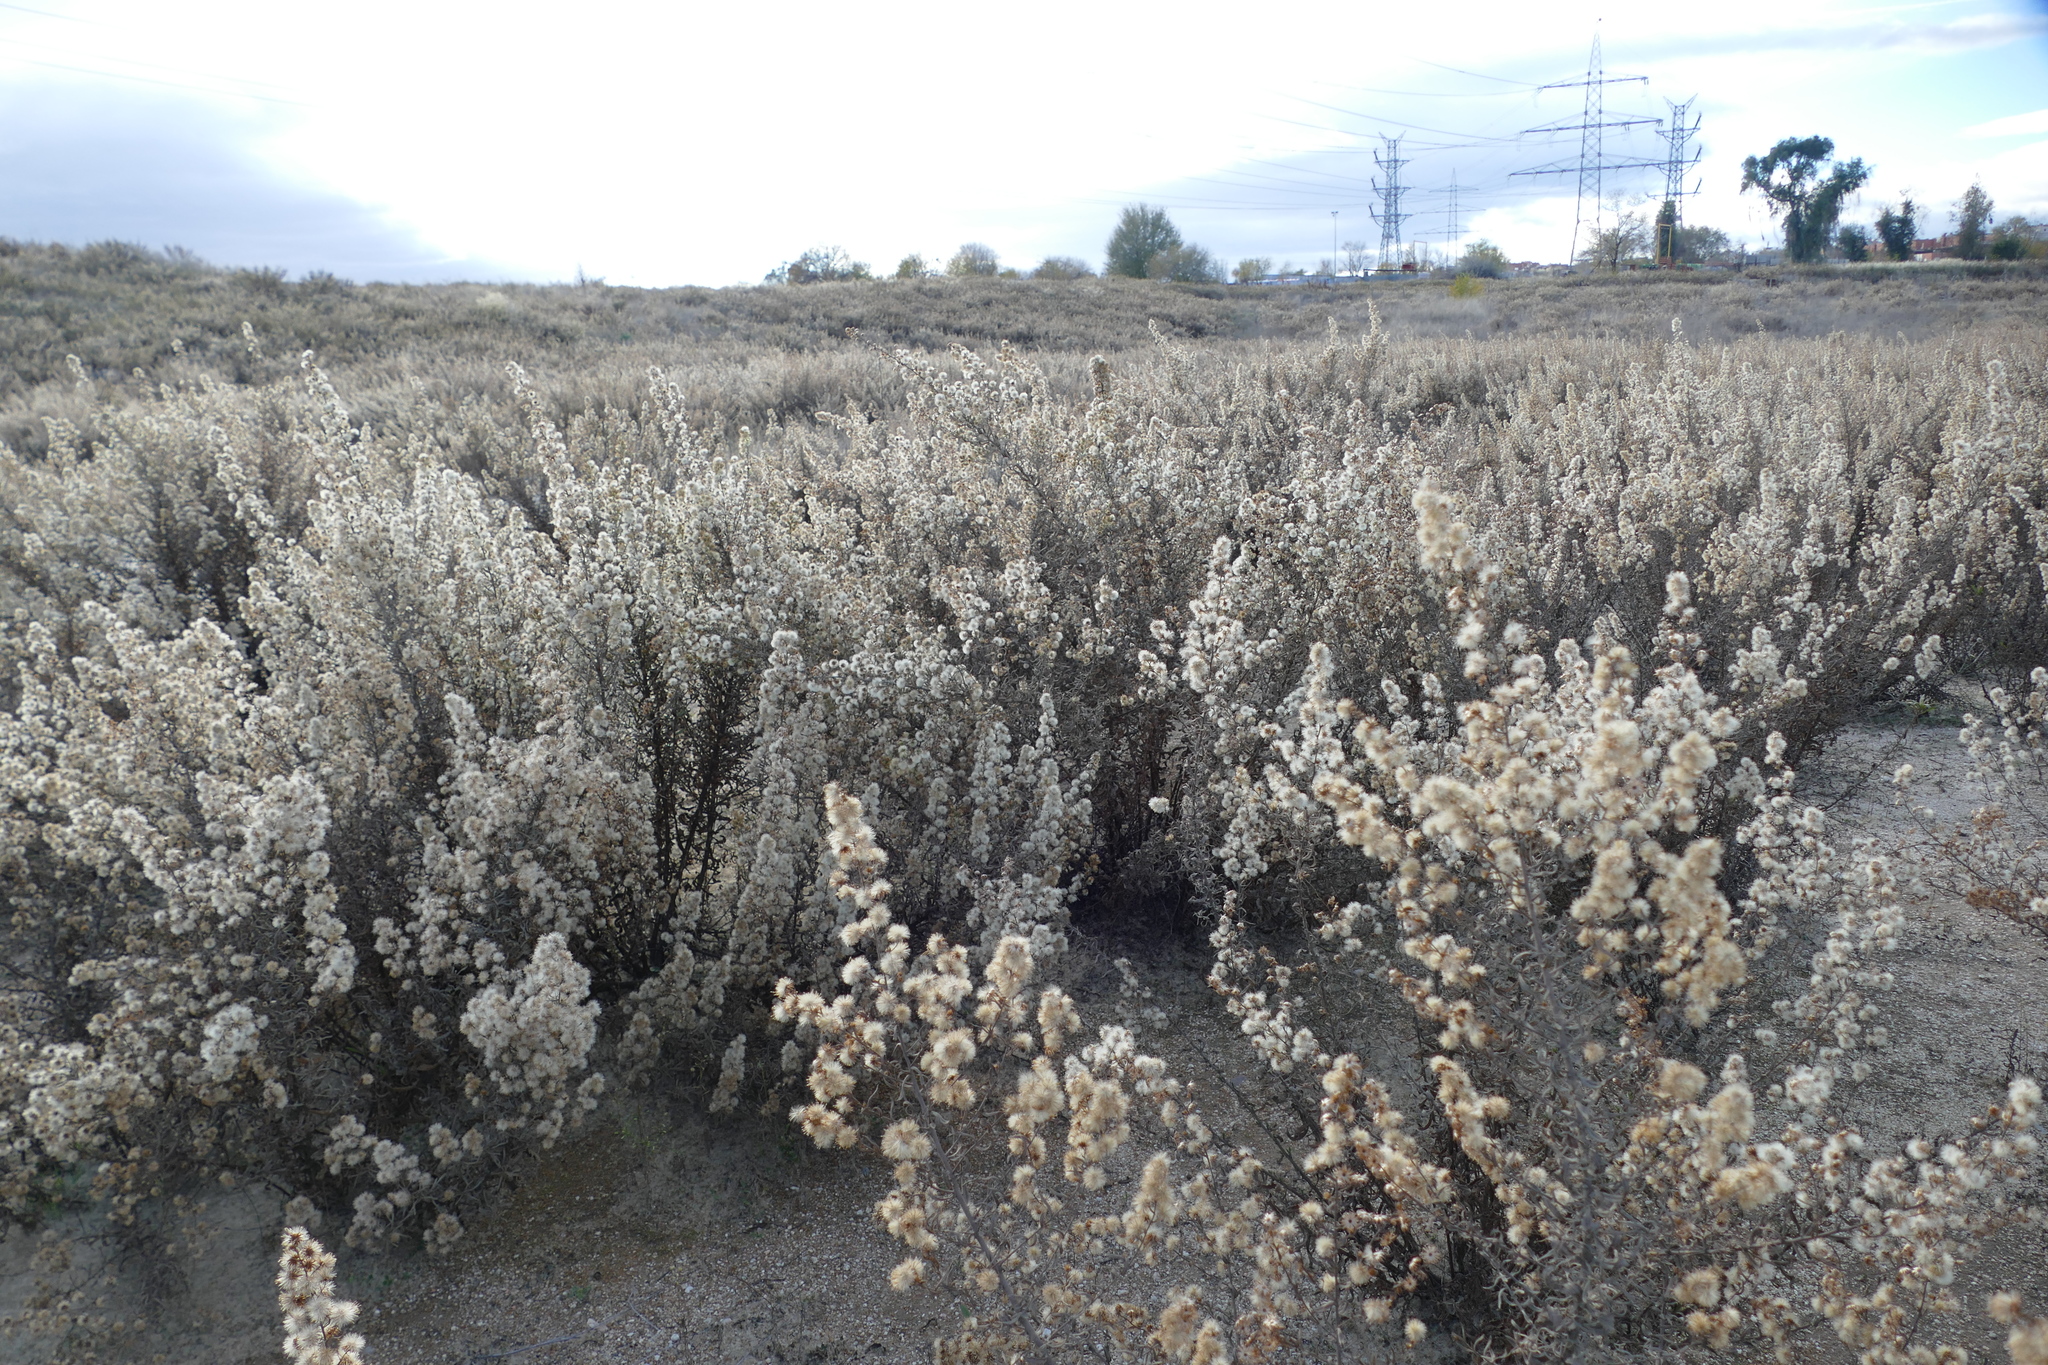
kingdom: Plantae
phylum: Tracheophyta
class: Magnoliopsida
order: Asterales
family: Asteraceae
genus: Dittrichia
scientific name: Dittrichia viscosa
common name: Woody fleabane
